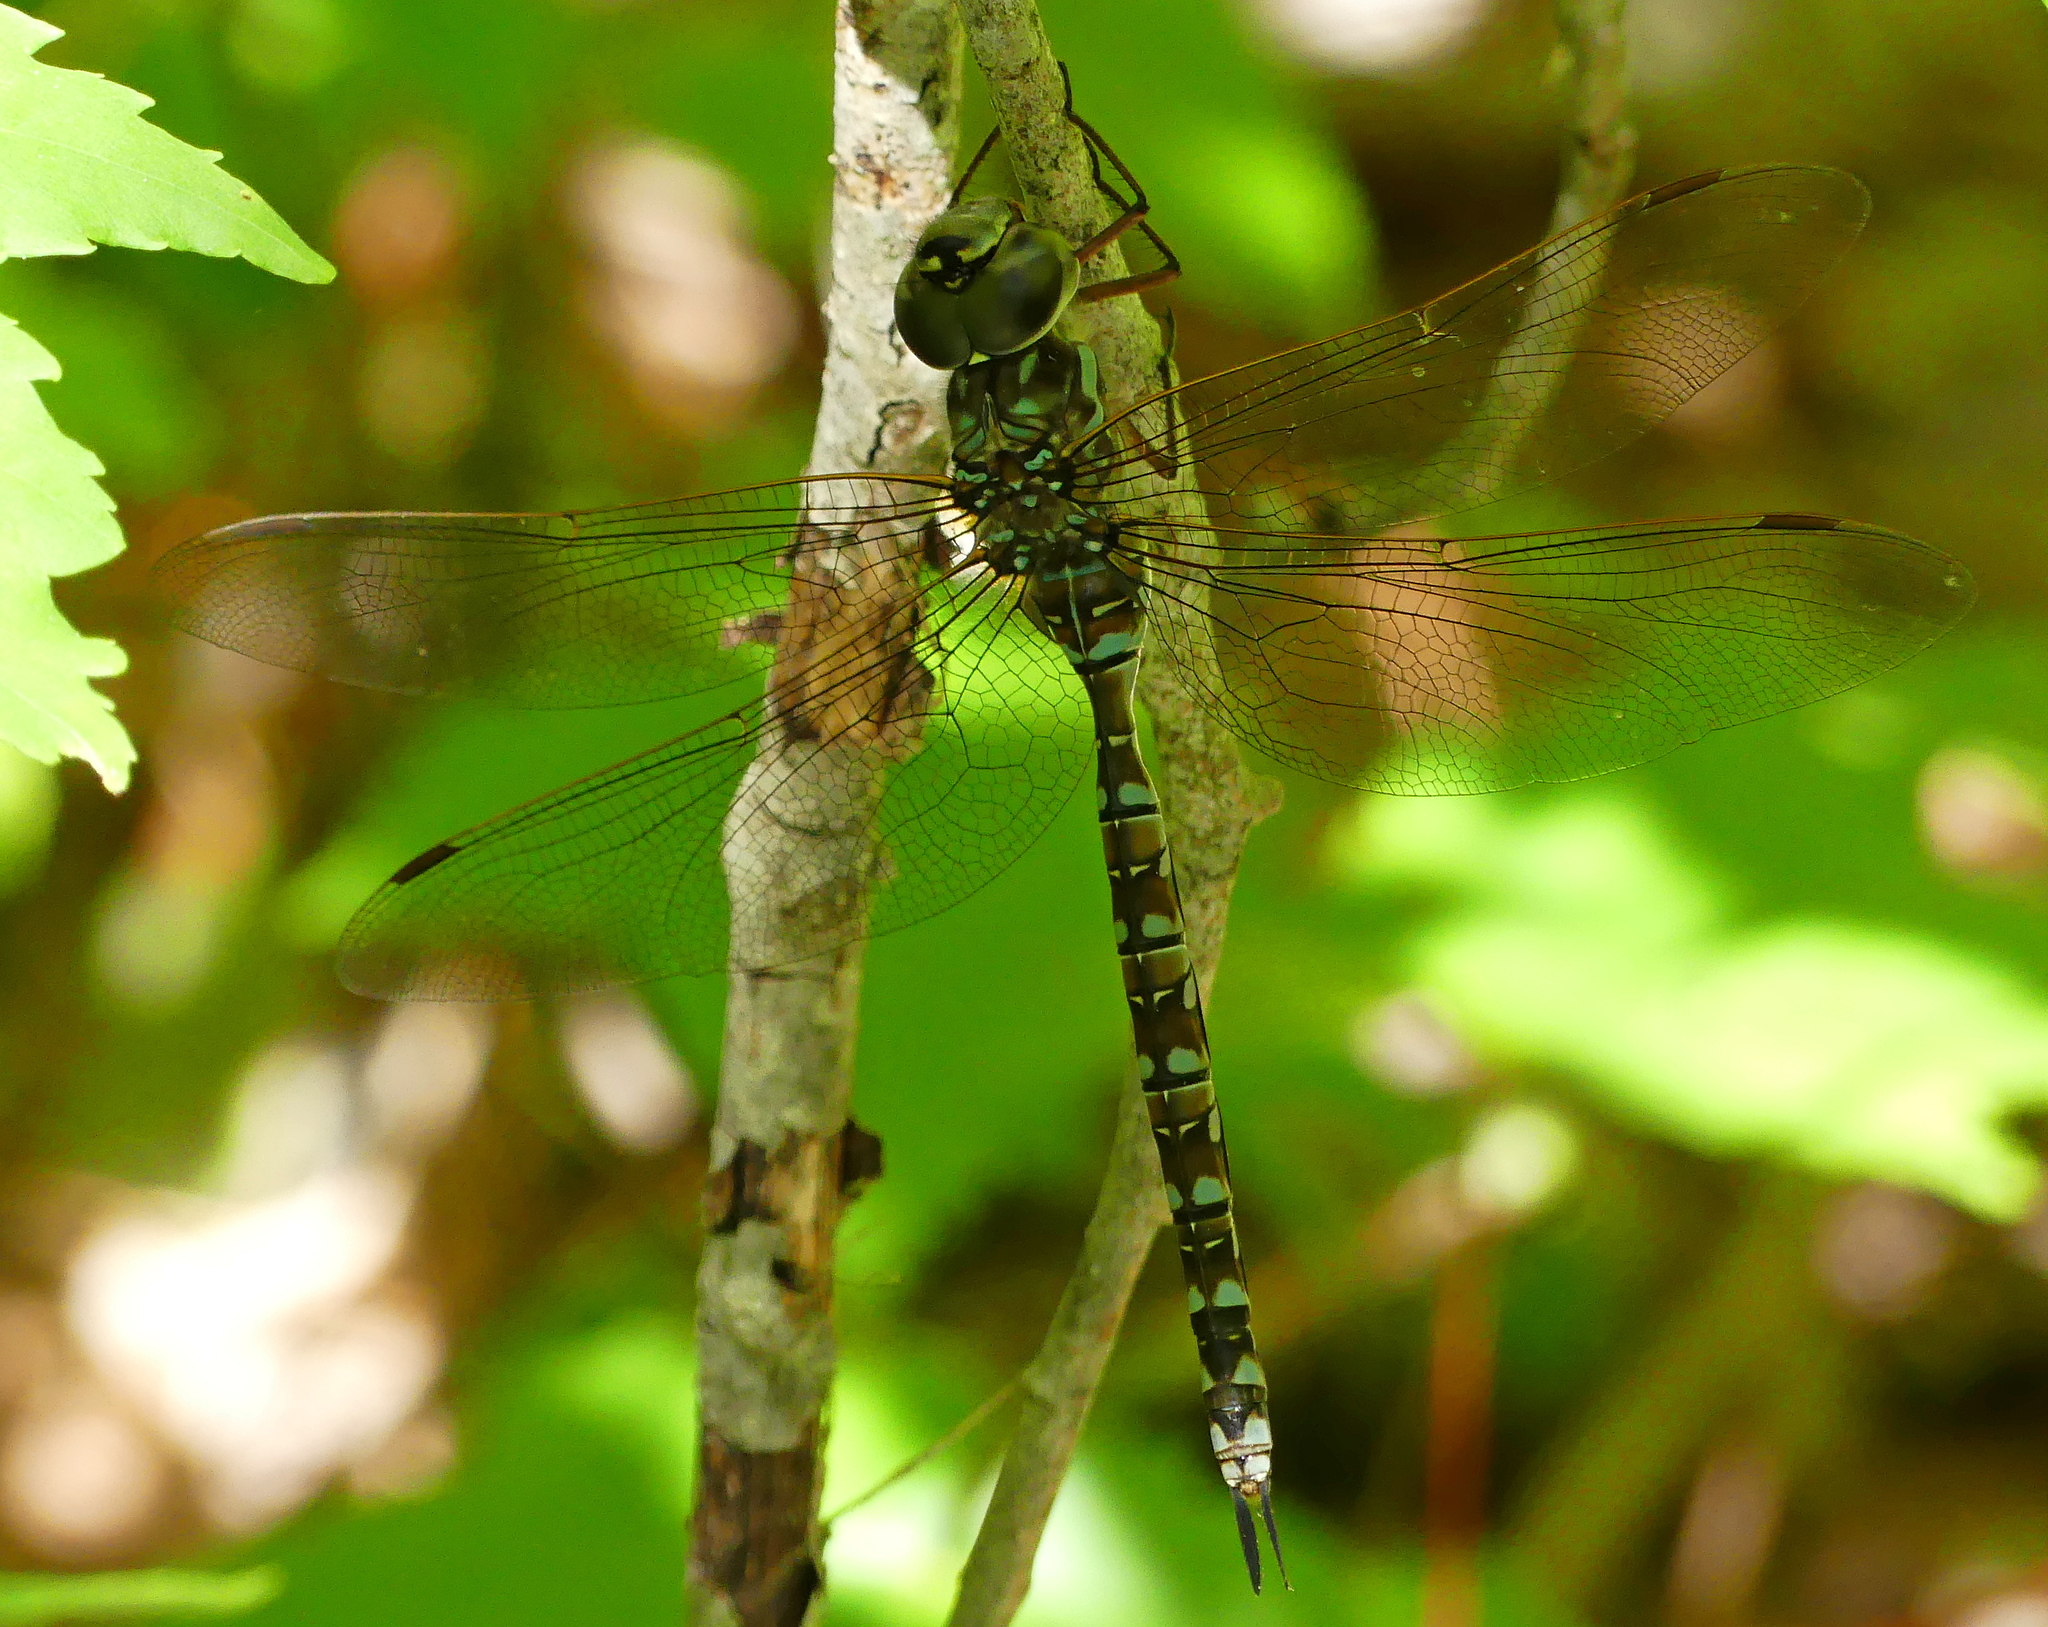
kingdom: Animalia
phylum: Arthropoda
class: Insecta
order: Odonata
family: Aeshnidae
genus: Aeshna
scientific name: Aeshna canadensis
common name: Canada darner
